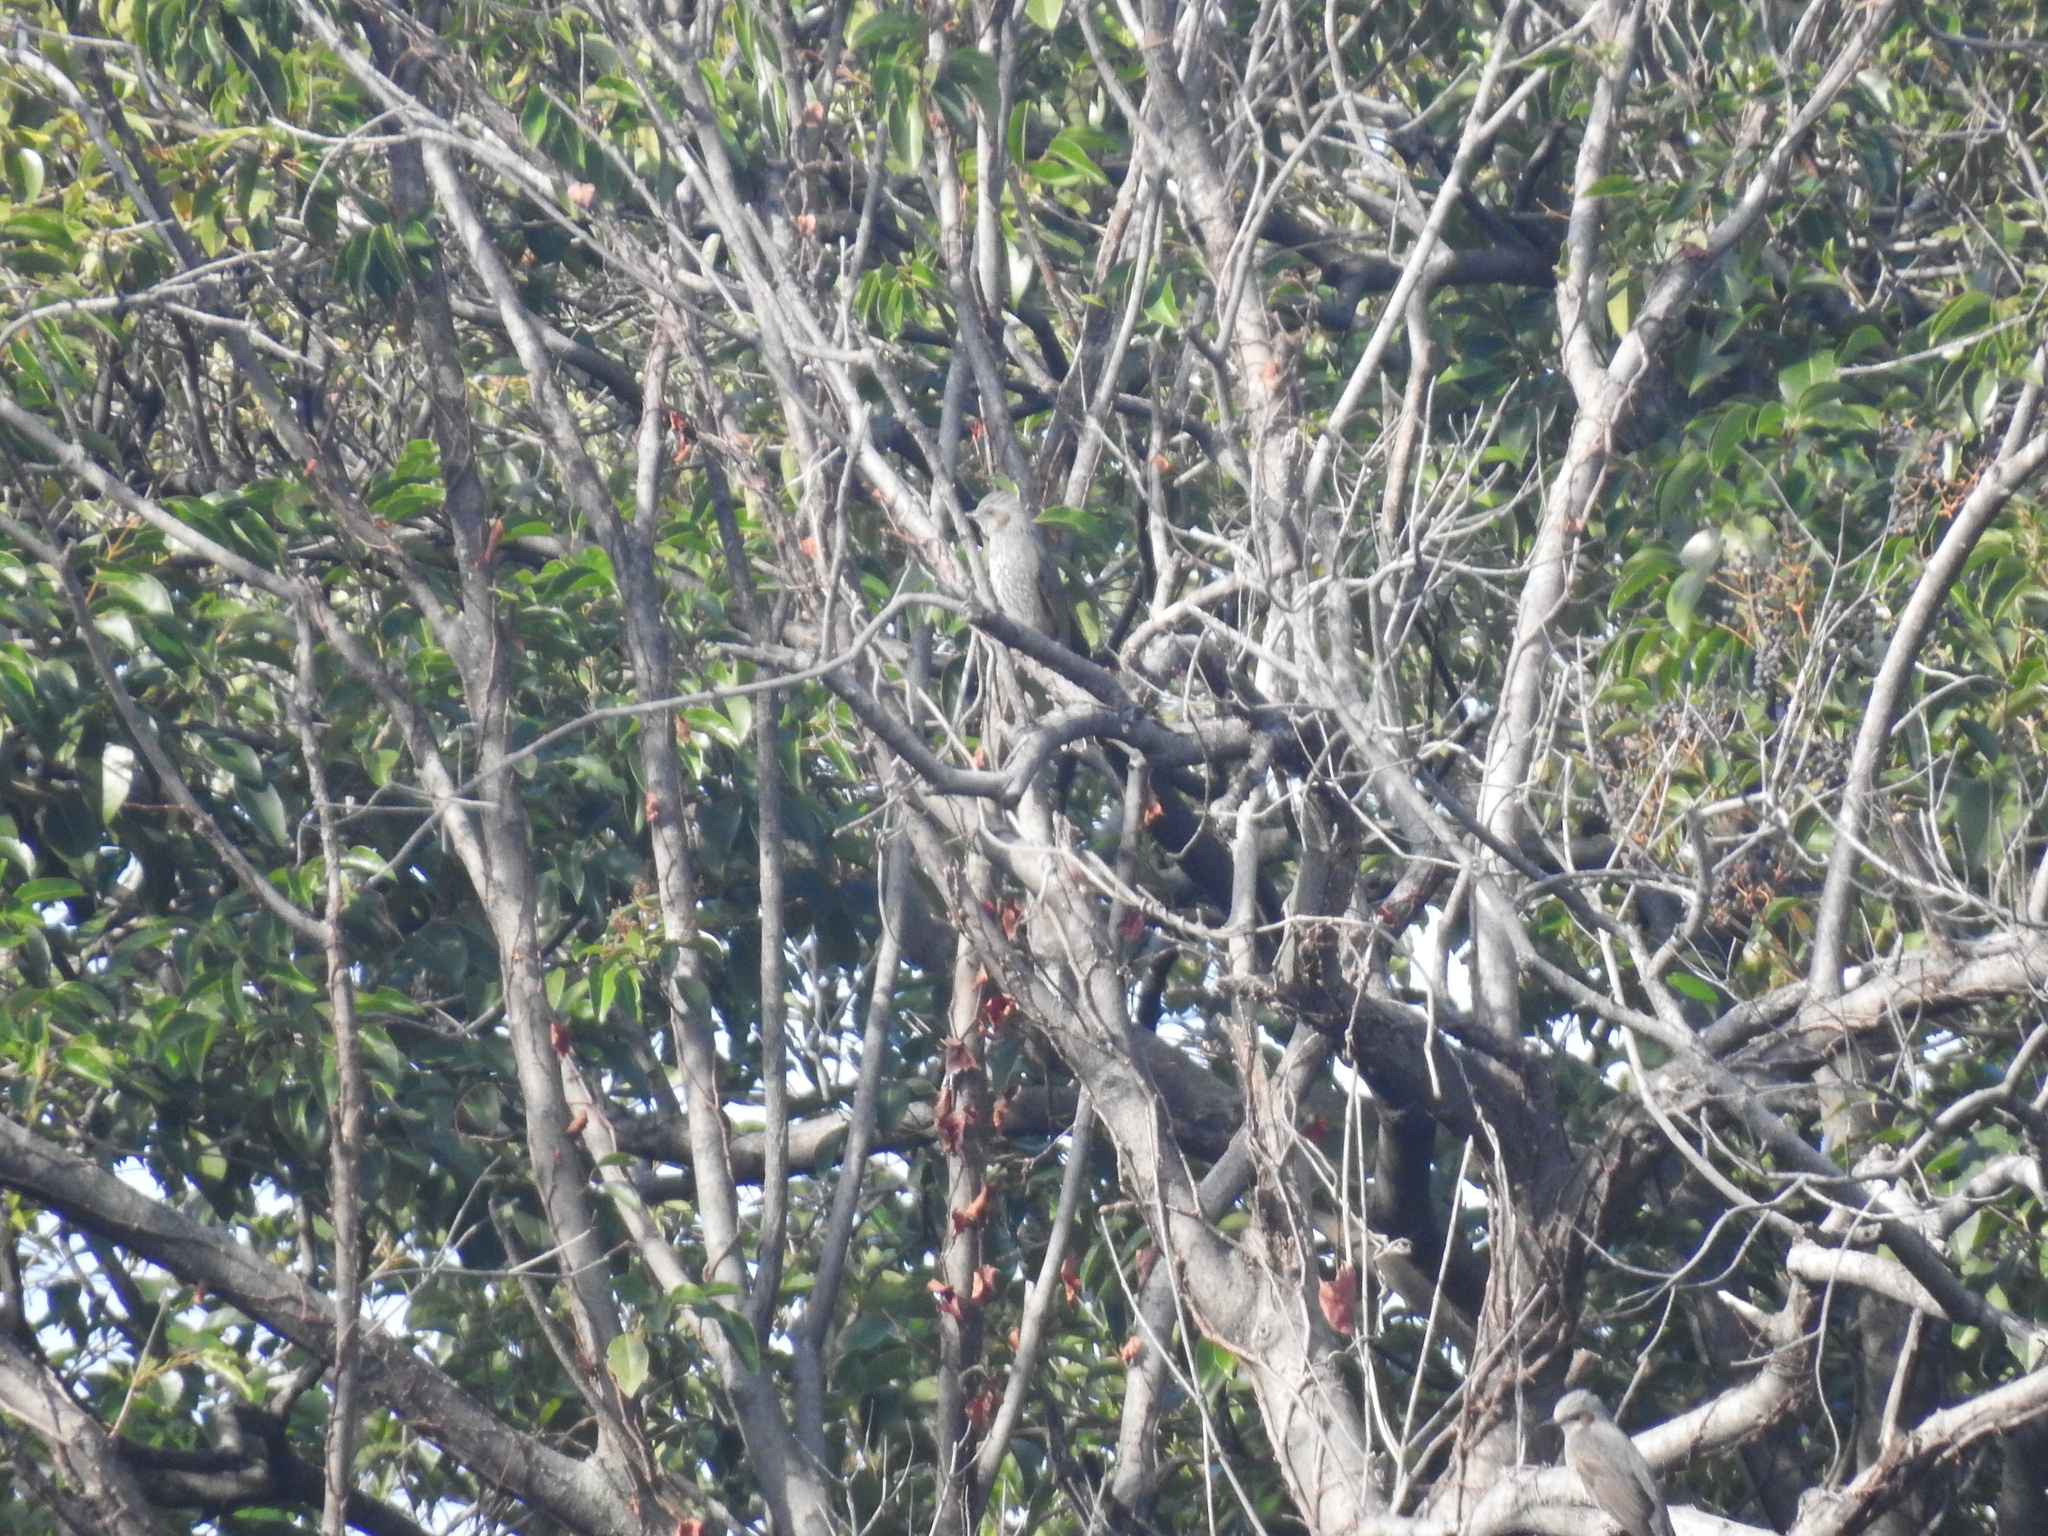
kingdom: Animalia
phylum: Chordata
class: Aves
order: Passeriformes
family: Pycnonotidae
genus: Hypsipetes
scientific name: Hypsipetes amaurotis
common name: Brown-eared bulbul
